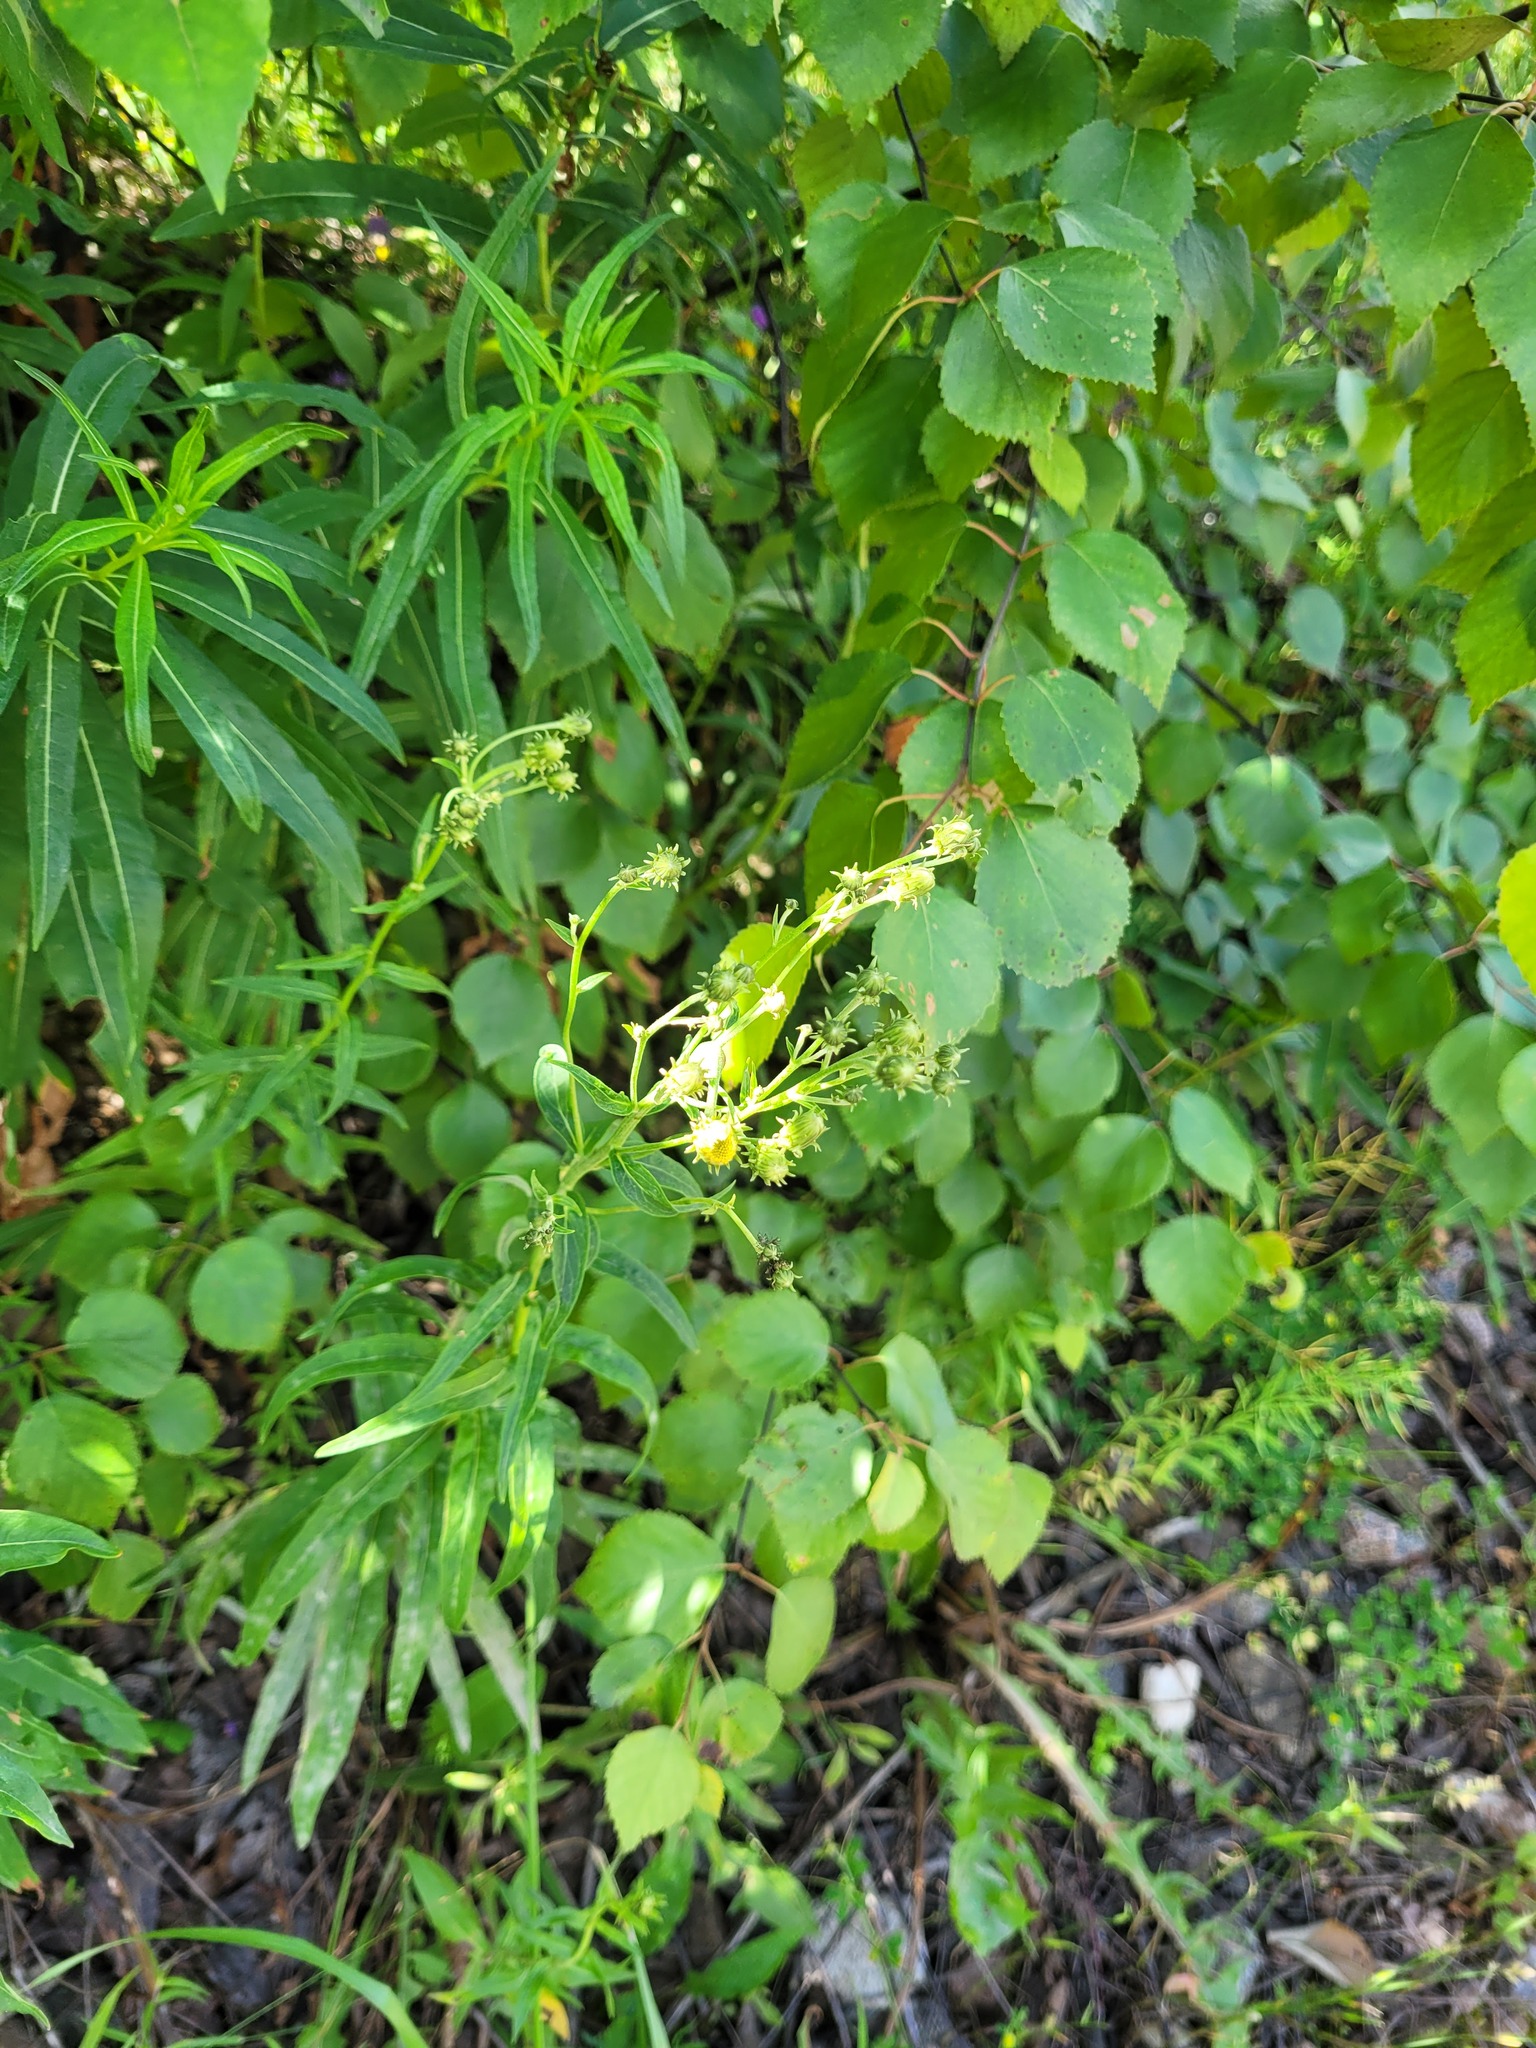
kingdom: Plantae
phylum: Tracheophyta
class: Magnoliopsida
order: Asterales
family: Asteraceae
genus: Hieracium
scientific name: Hieracium umbellatum
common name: Northern hawkweed
